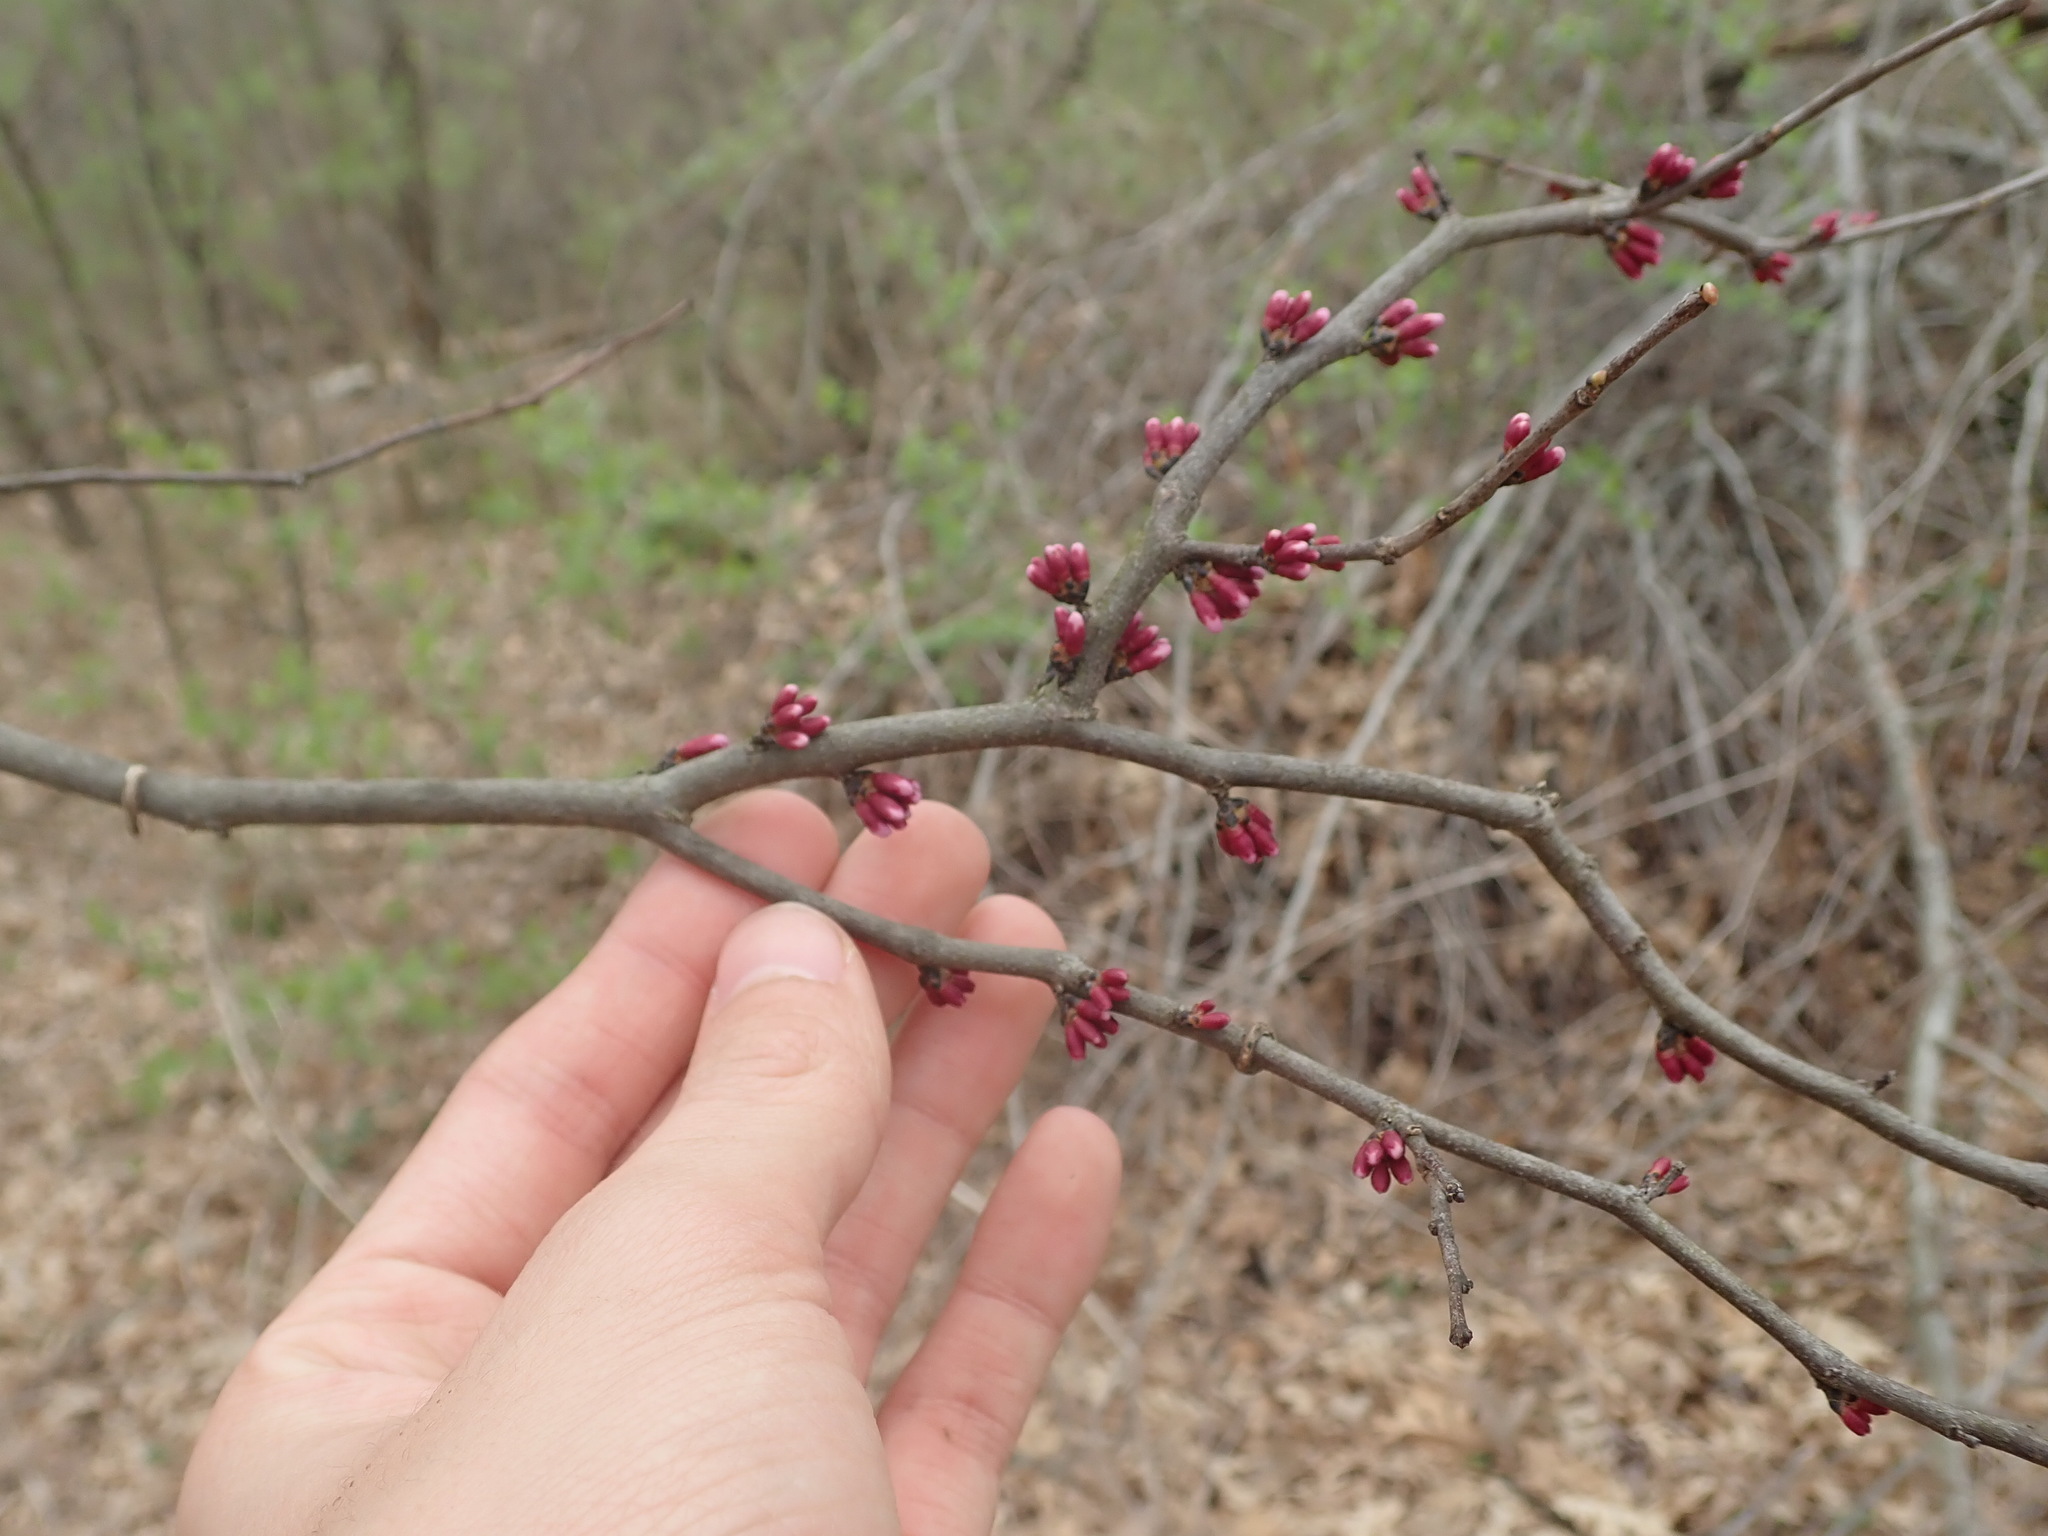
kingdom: Plantae
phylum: Tracheophyta
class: Magnoliopsida
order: Fabales
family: Fabaceae
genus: Cercis
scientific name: Cercis canadensis
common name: Eastern redbud
